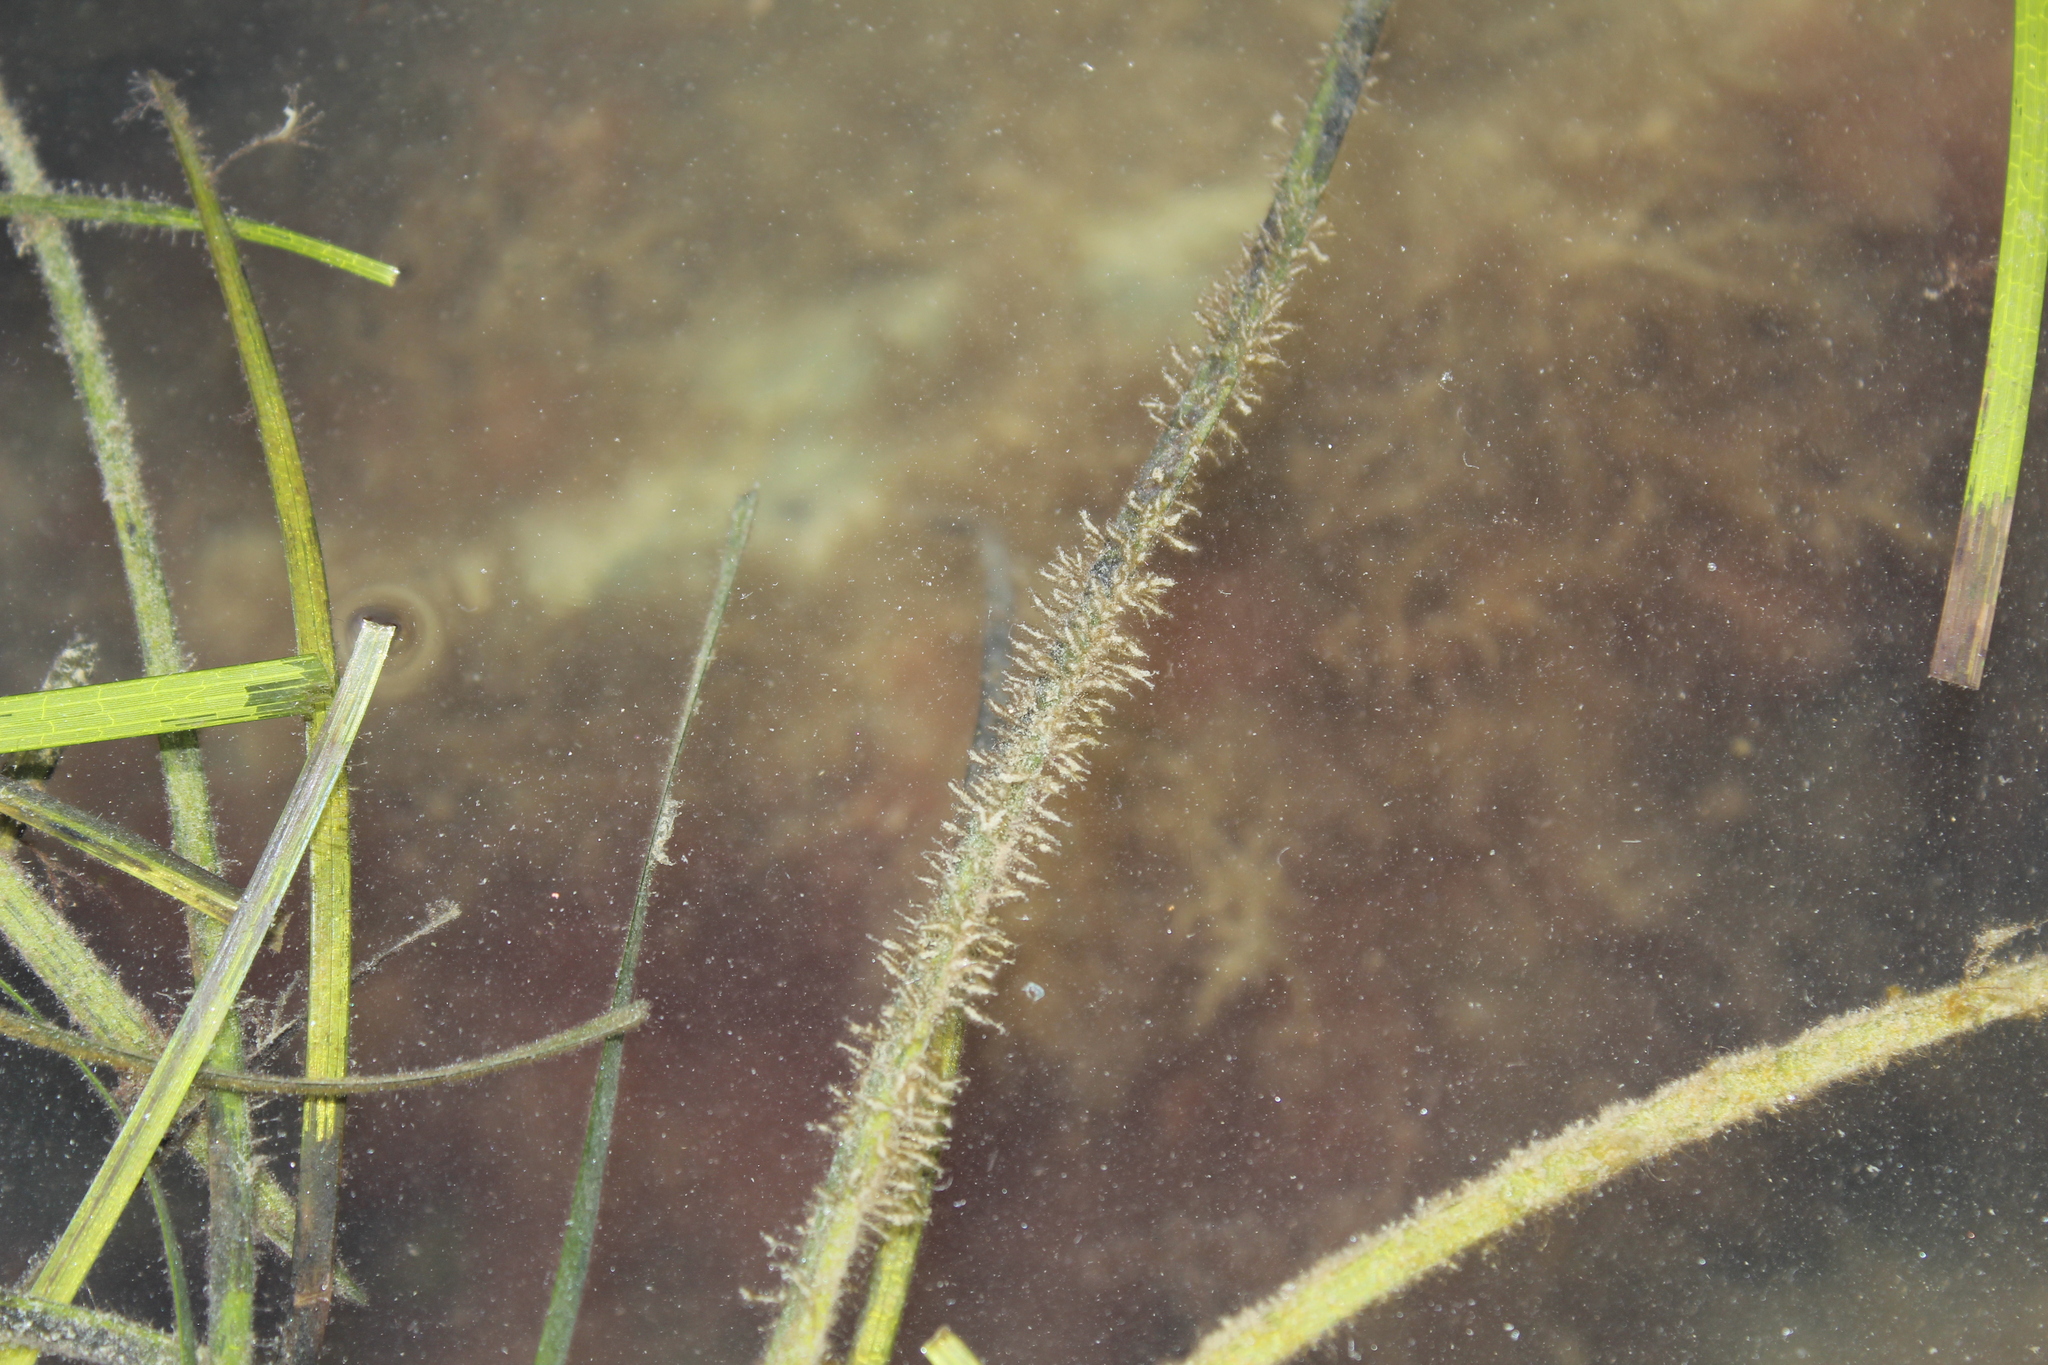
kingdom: Plantae
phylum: Tracheophyta
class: Liliopsida
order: Alismatales
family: Zosteraceae
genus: Zostera
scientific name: Zostera marina
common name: Eelgrass
